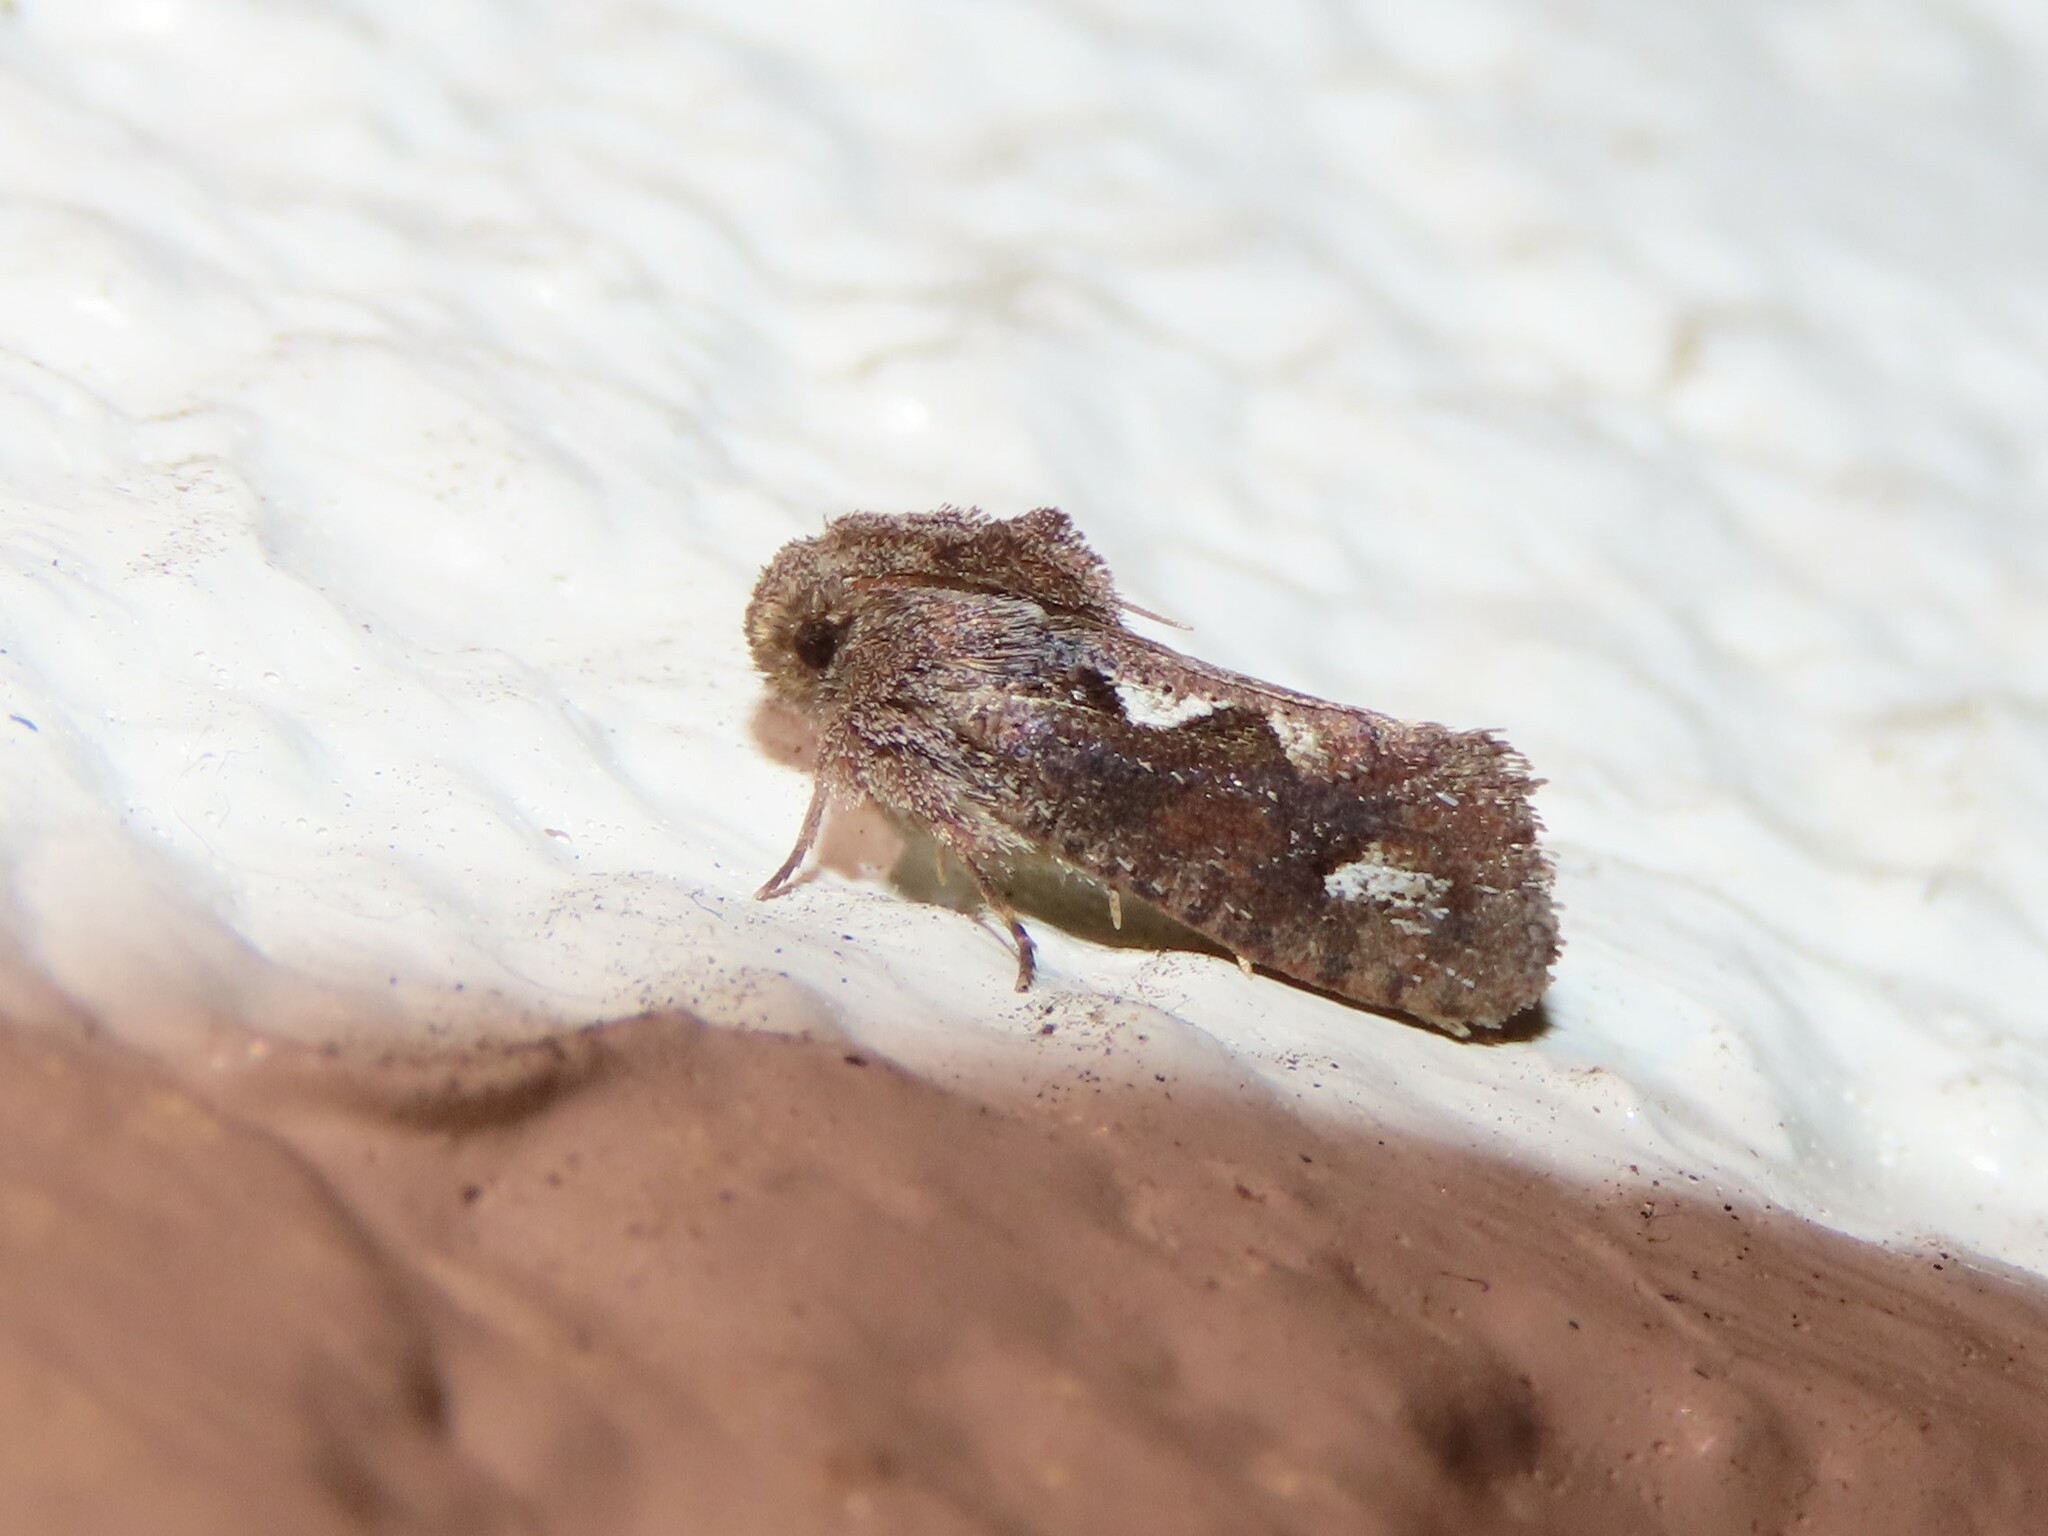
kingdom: Animalia
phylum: Arthropoda
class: Insecta
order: Lepidoptera
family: Tineidae
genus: Acrolophus
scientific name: Acrolophus walsinghami
